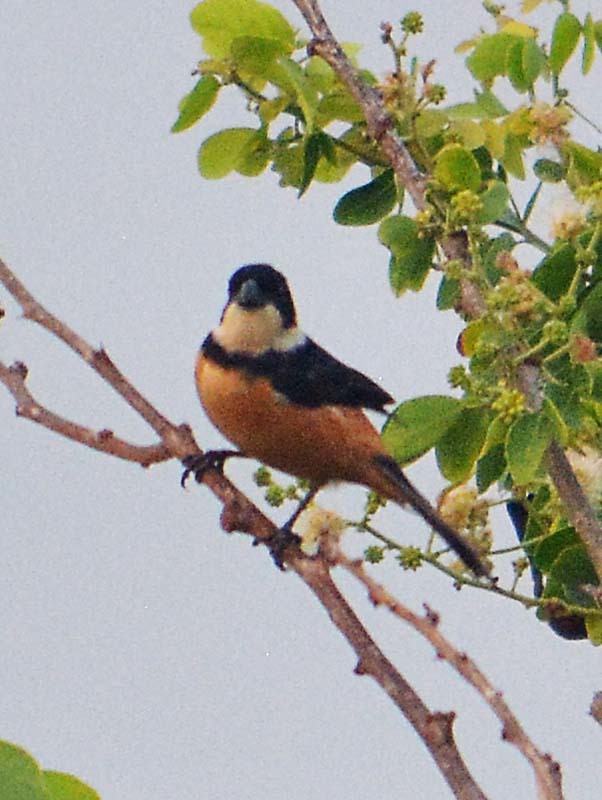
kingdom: Animalia
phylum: Chordata
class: Aves
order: Passeriformes
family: Thraupidae
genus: Sporophila
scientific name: Sporophila torqueola
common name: White-collared seedeater
